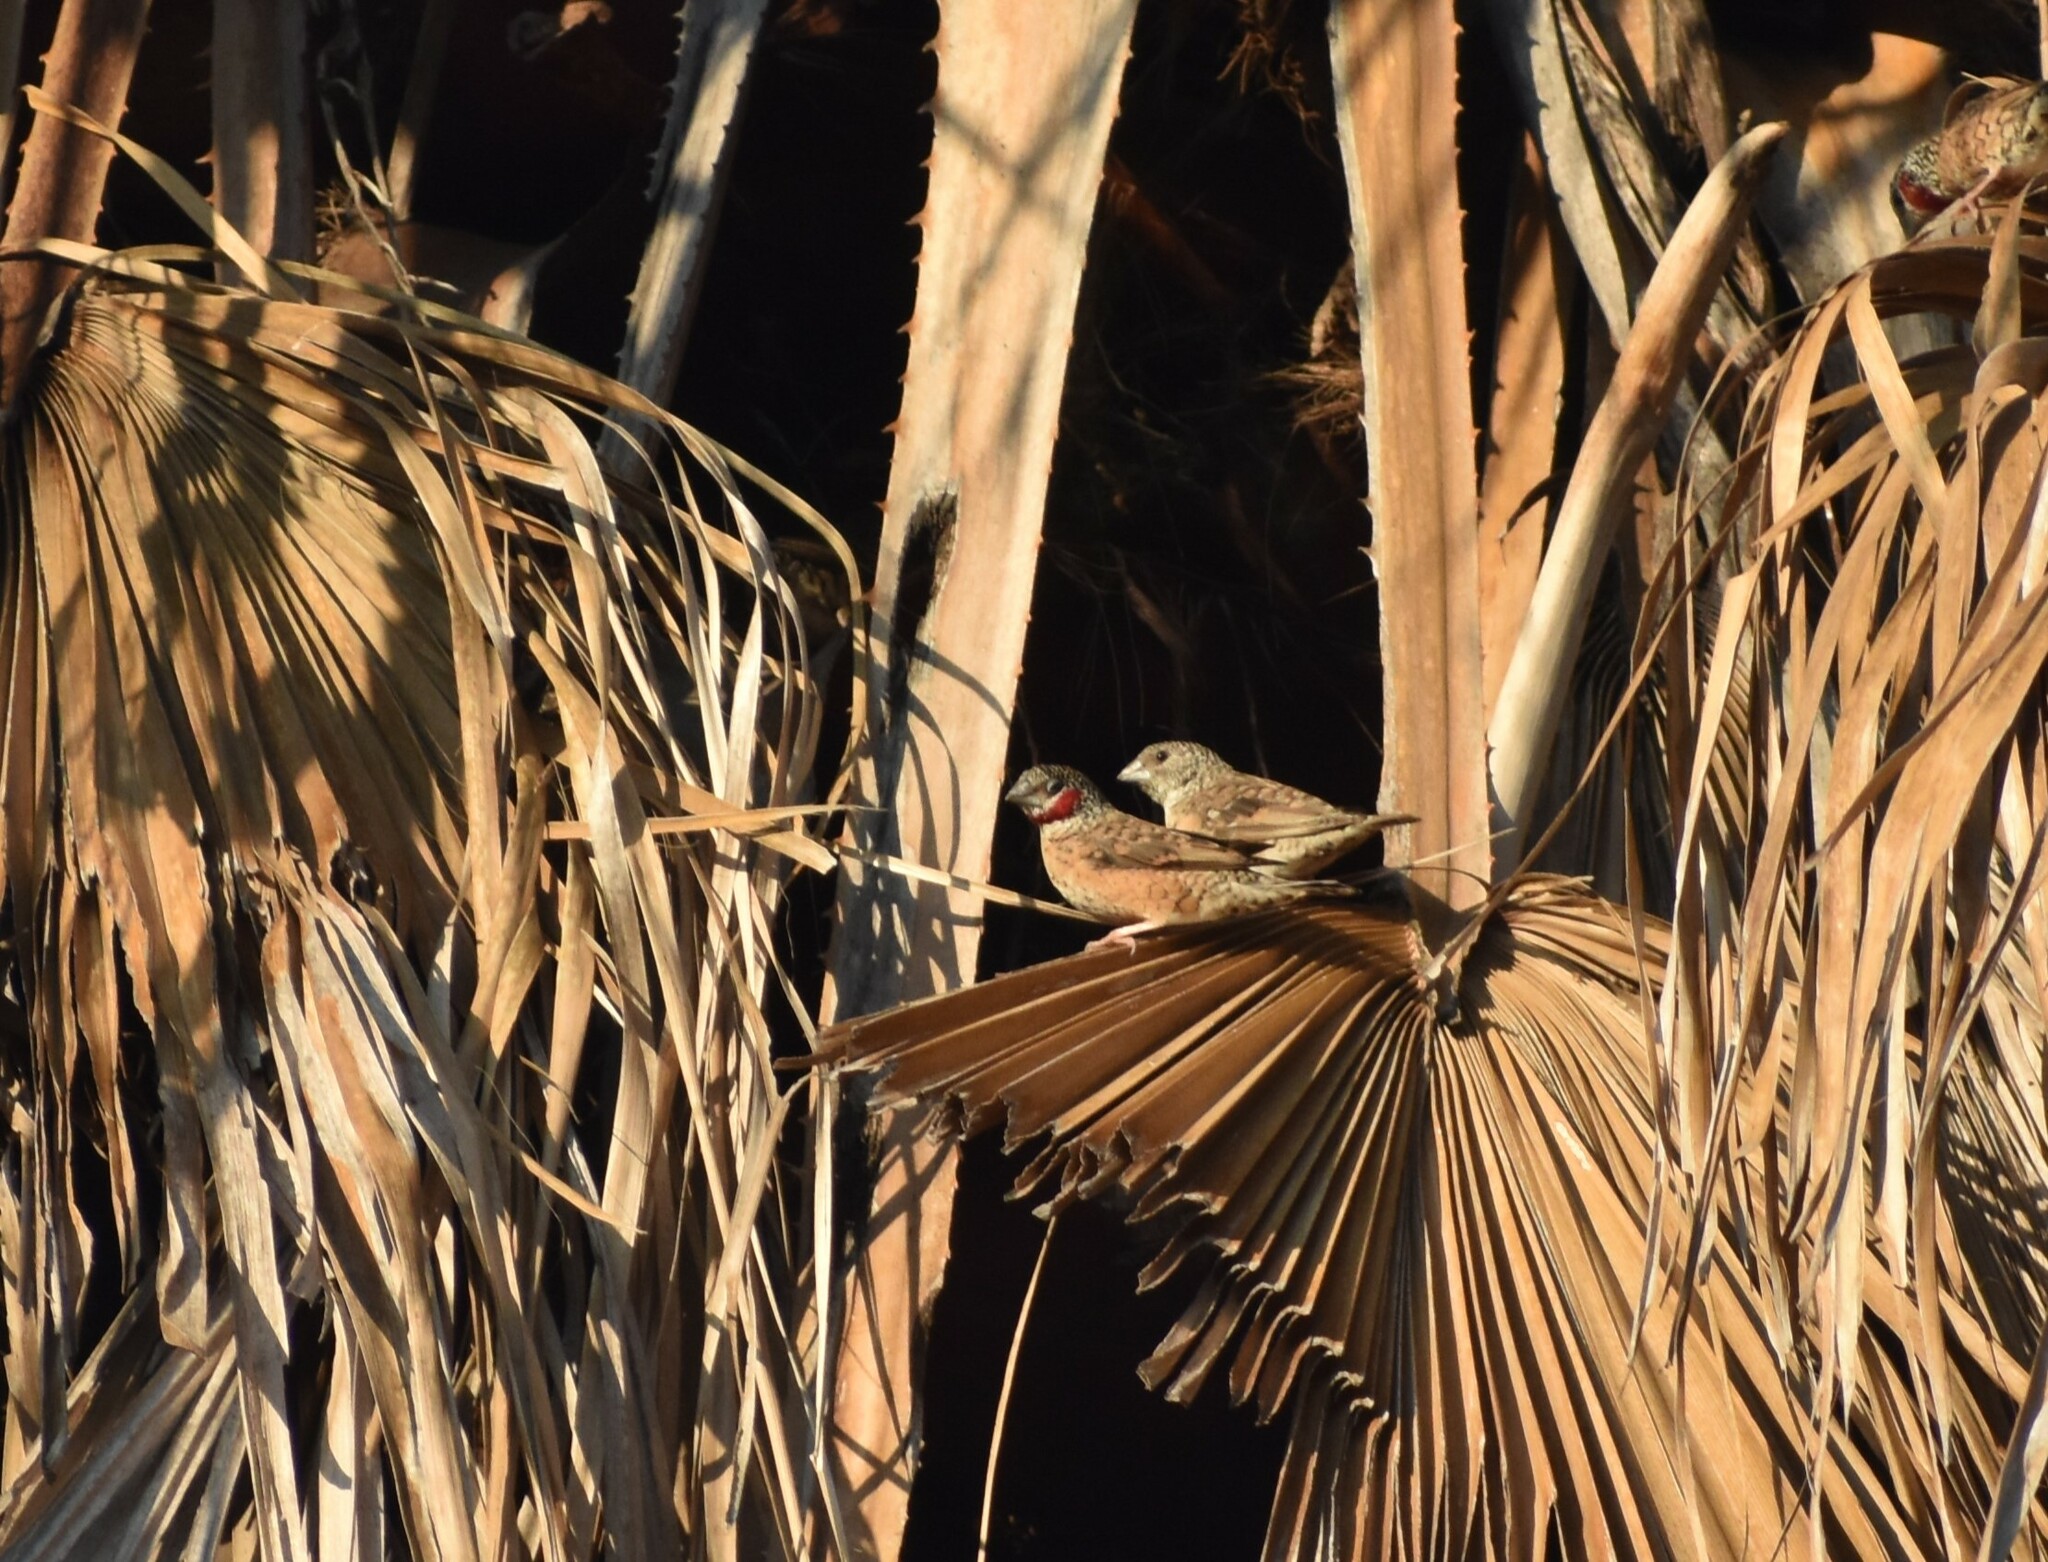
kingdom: Animalia
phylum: Chordata
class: Aves
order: Passeriformes
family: Estrildidae
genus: Amadina
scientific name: Amadina fasciata
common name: Cut-throat finch
